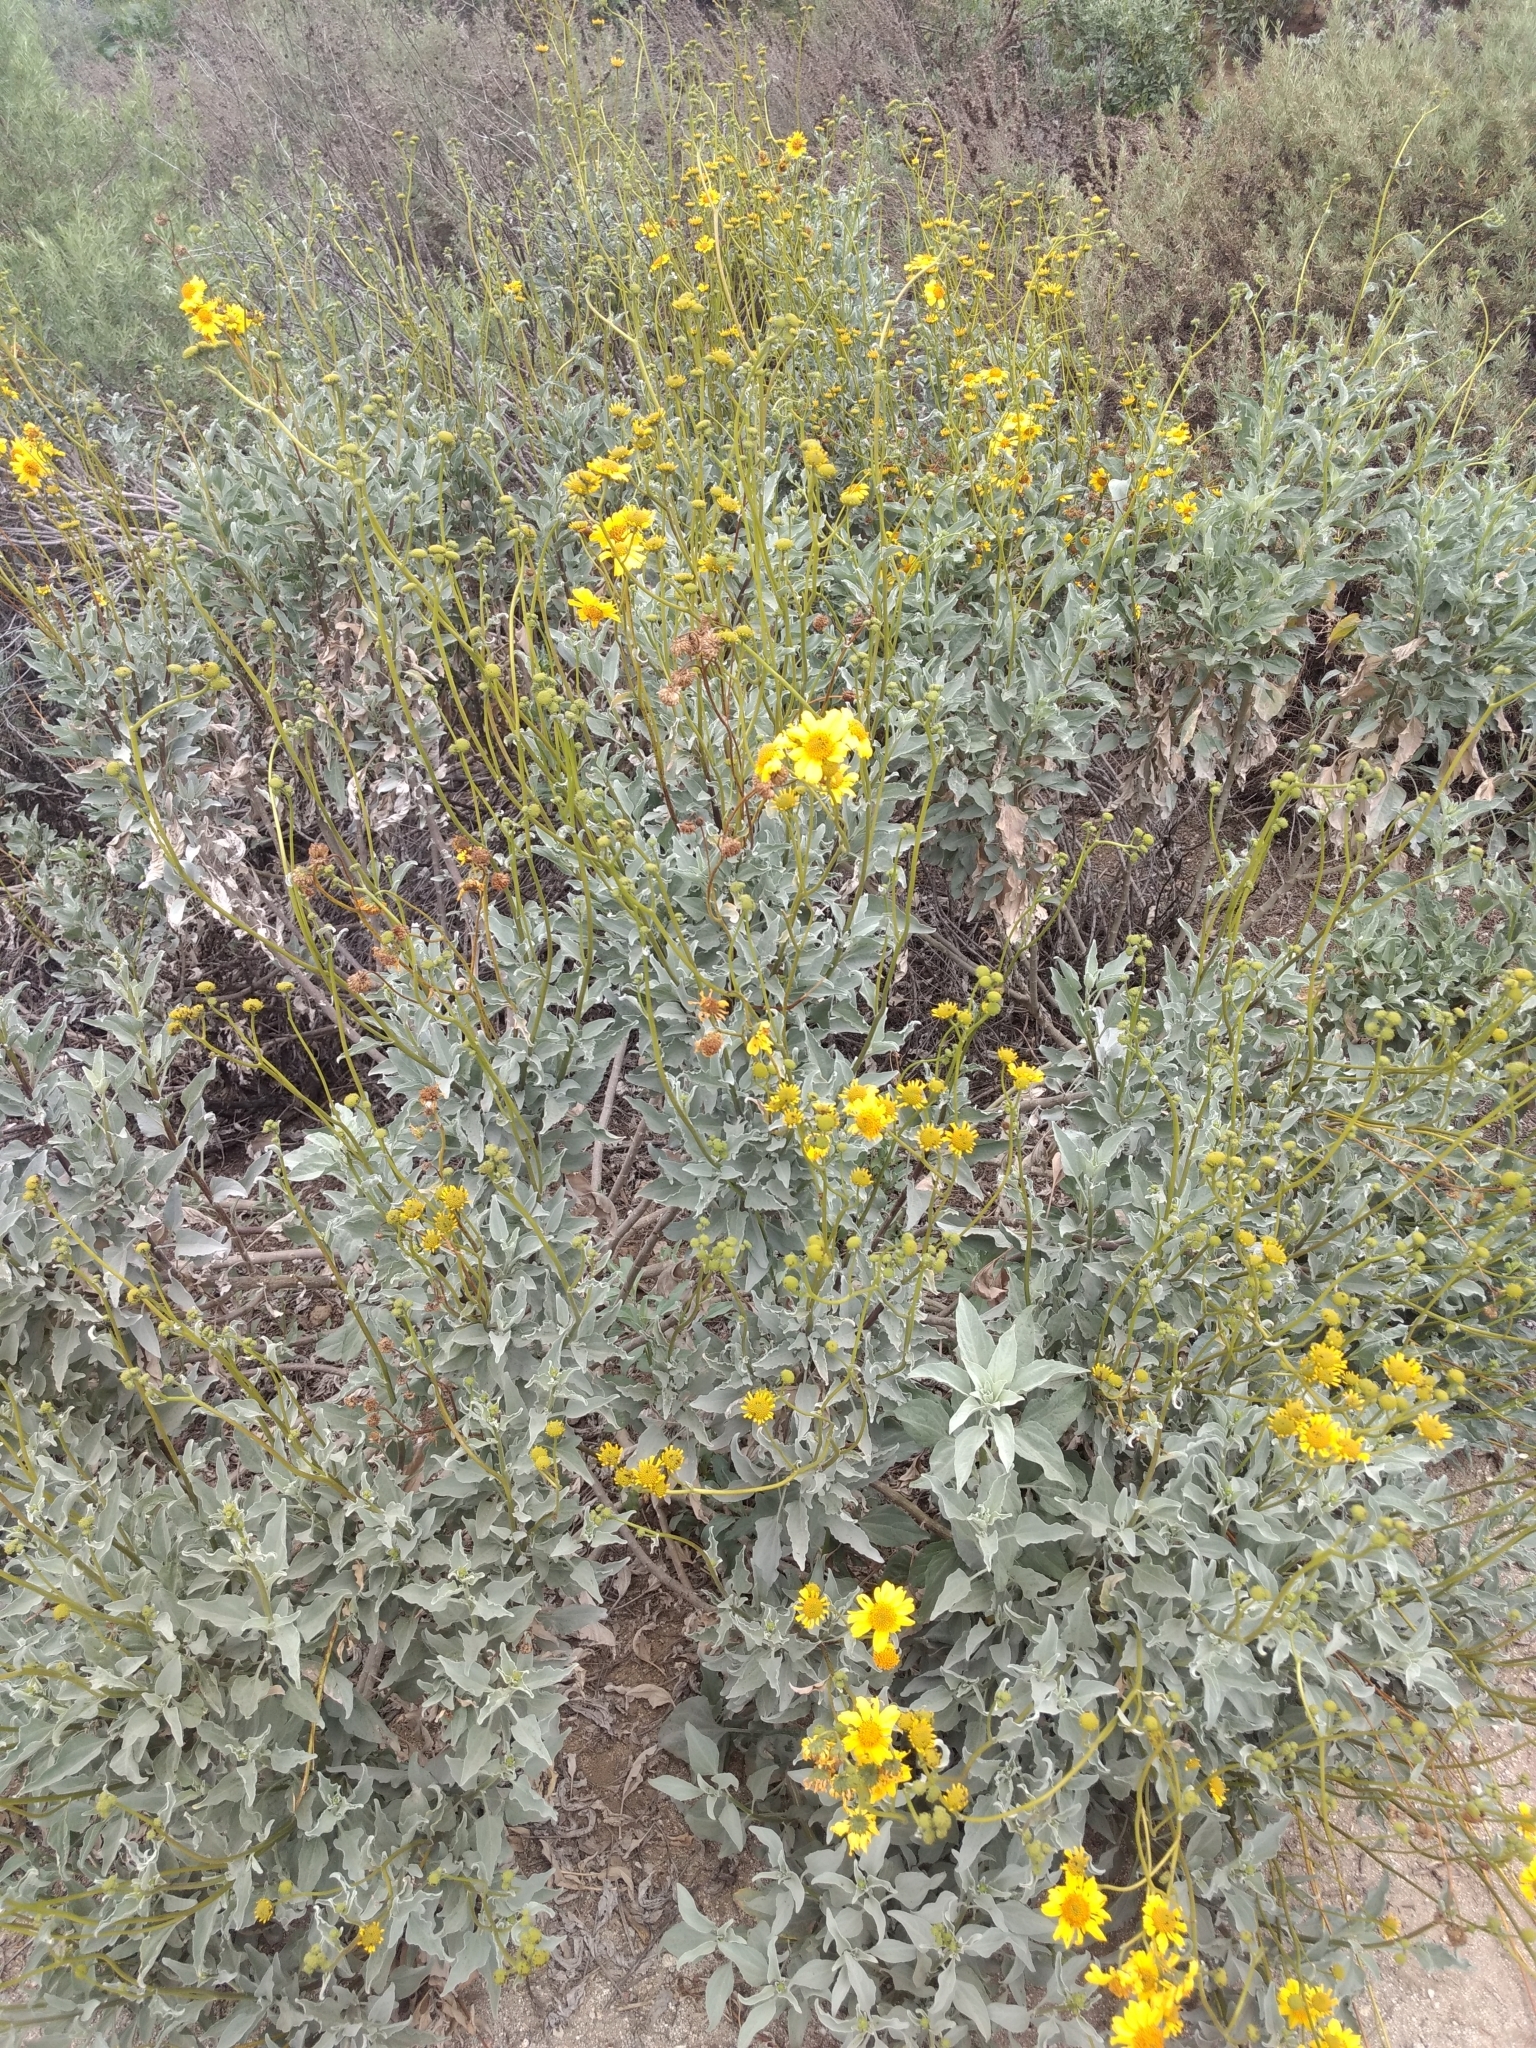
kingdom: Plantae
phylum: Tracheophyta
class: Magnoliopsida
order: Asterales
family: Asteraceae
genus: Encelia
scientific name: Encelia farinosa
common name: Brittlebush
